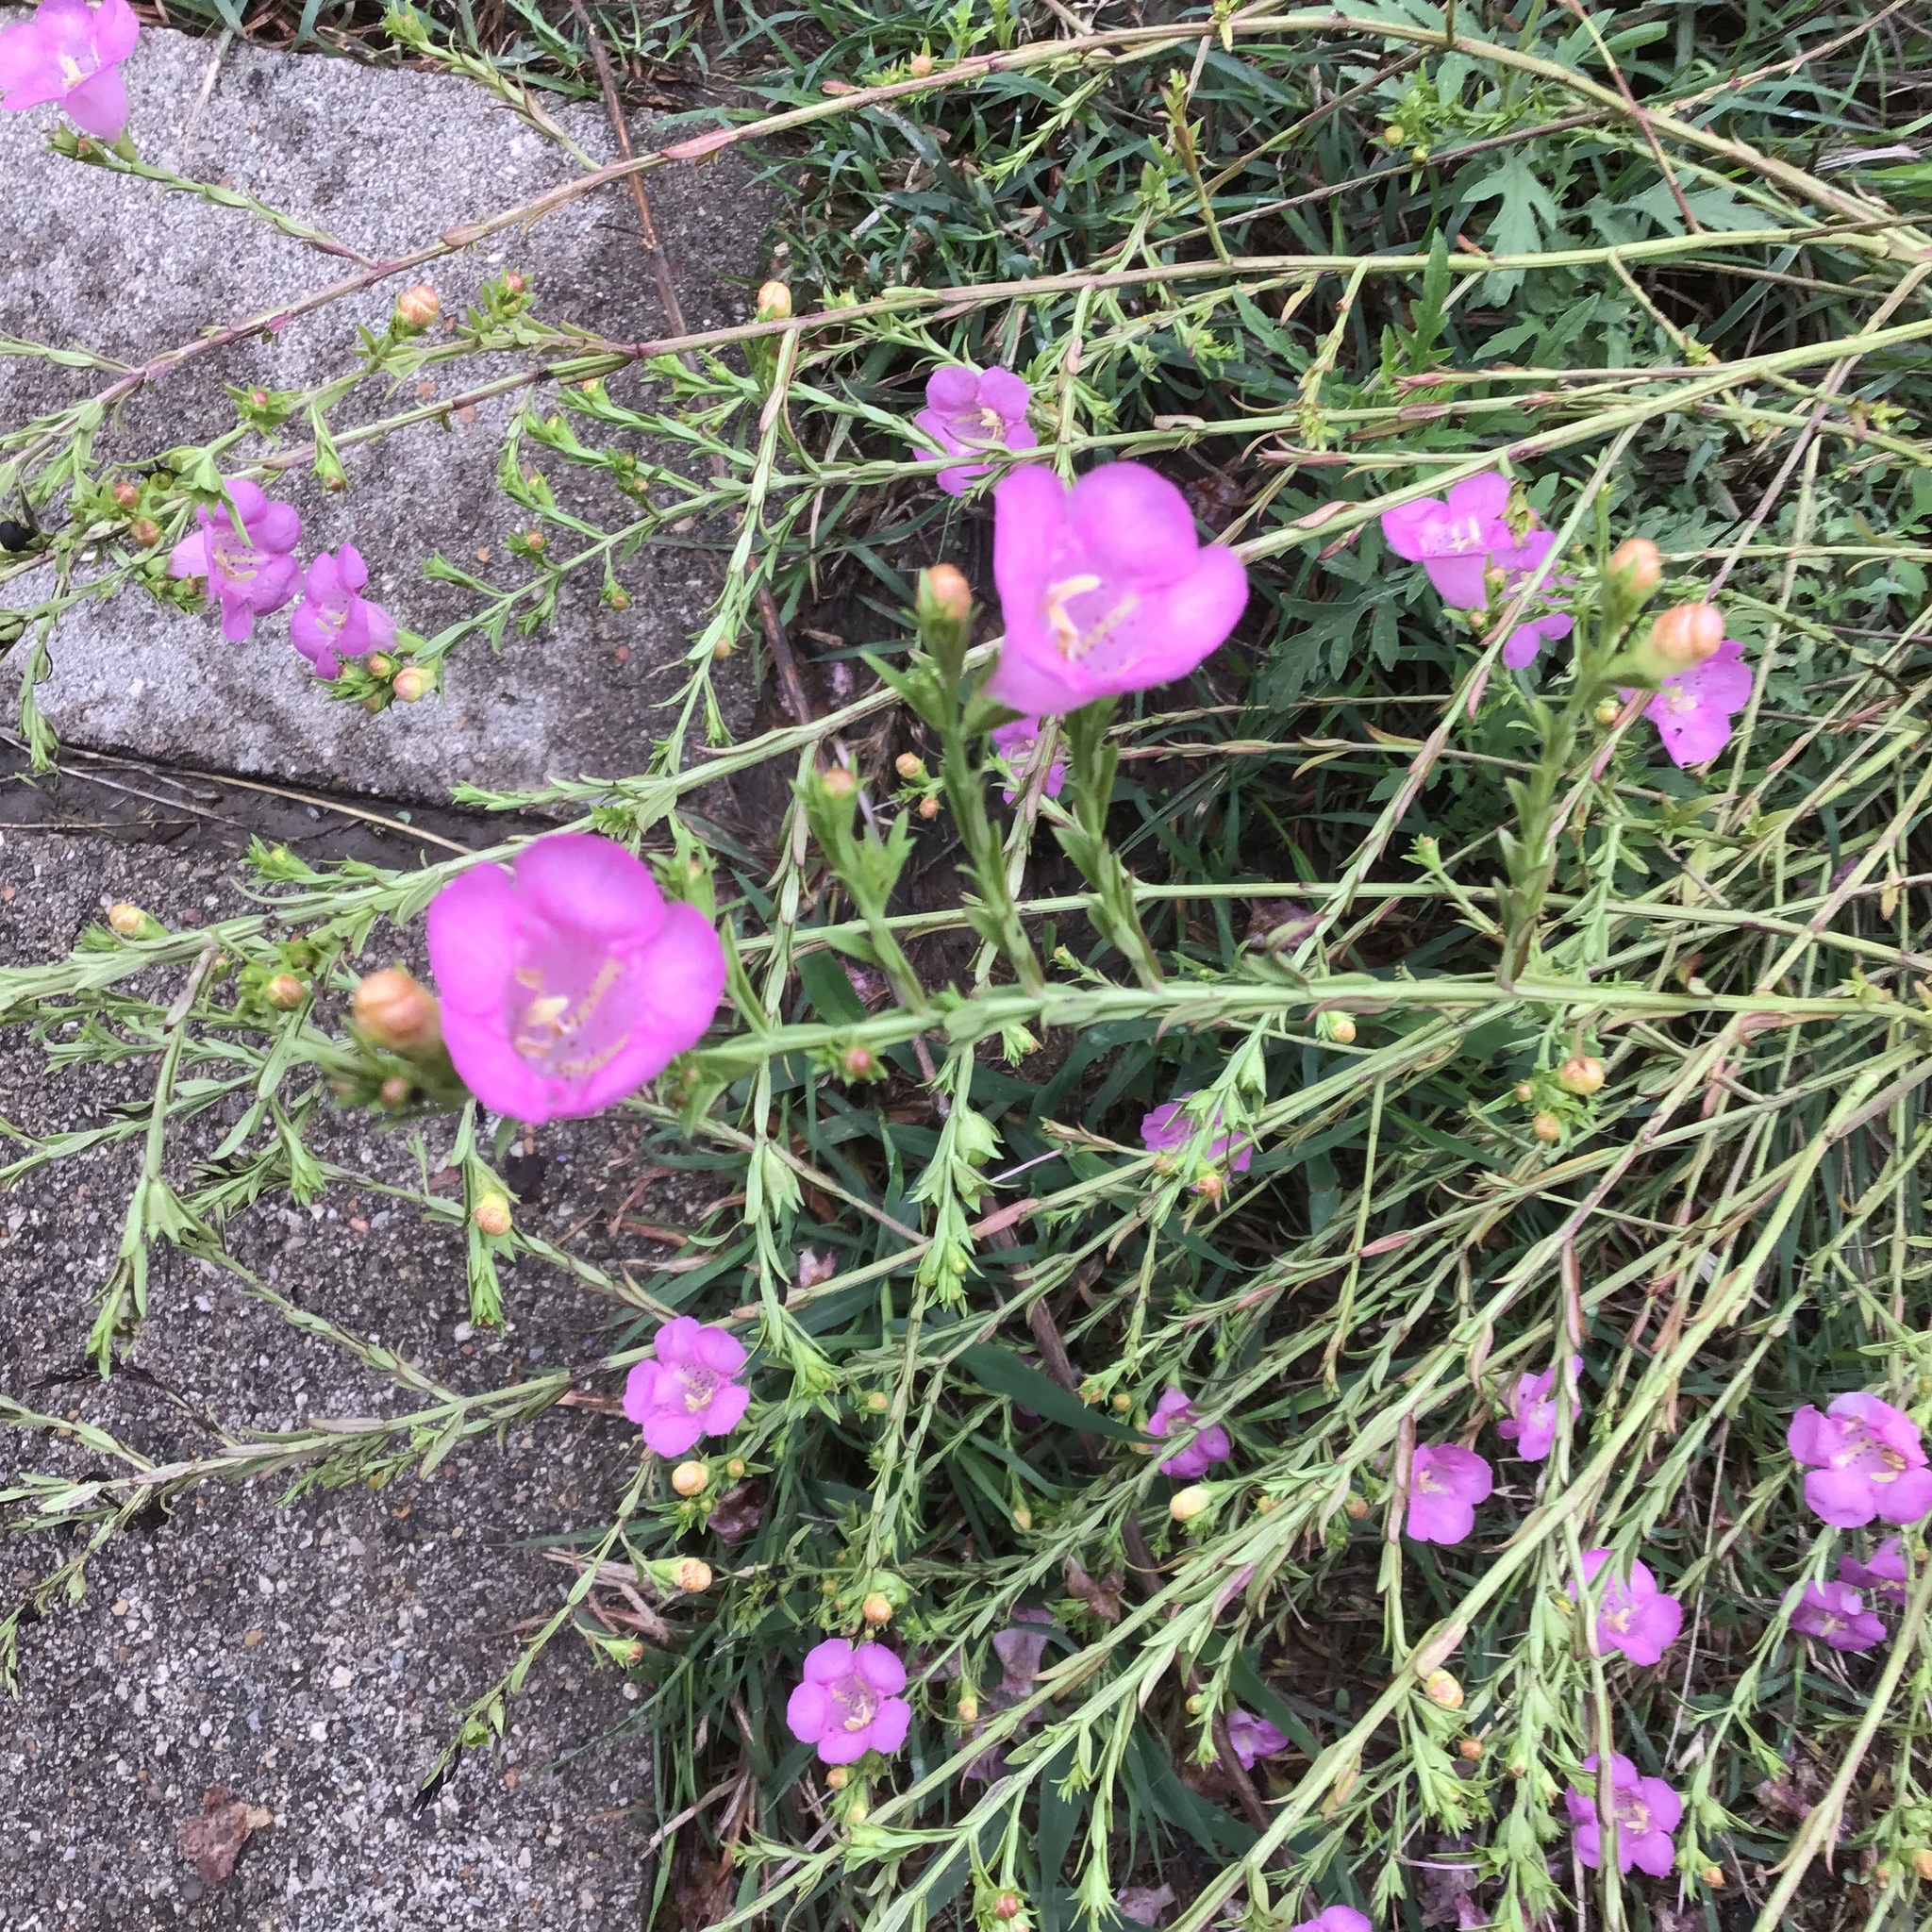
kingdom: Plantae
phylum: Tracheophyta
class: Magnoliopsida
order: Lamiales
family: Orobanchaceae
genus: Agalinis
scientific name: Agalinis heterophylla
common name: Prairie agalinis
